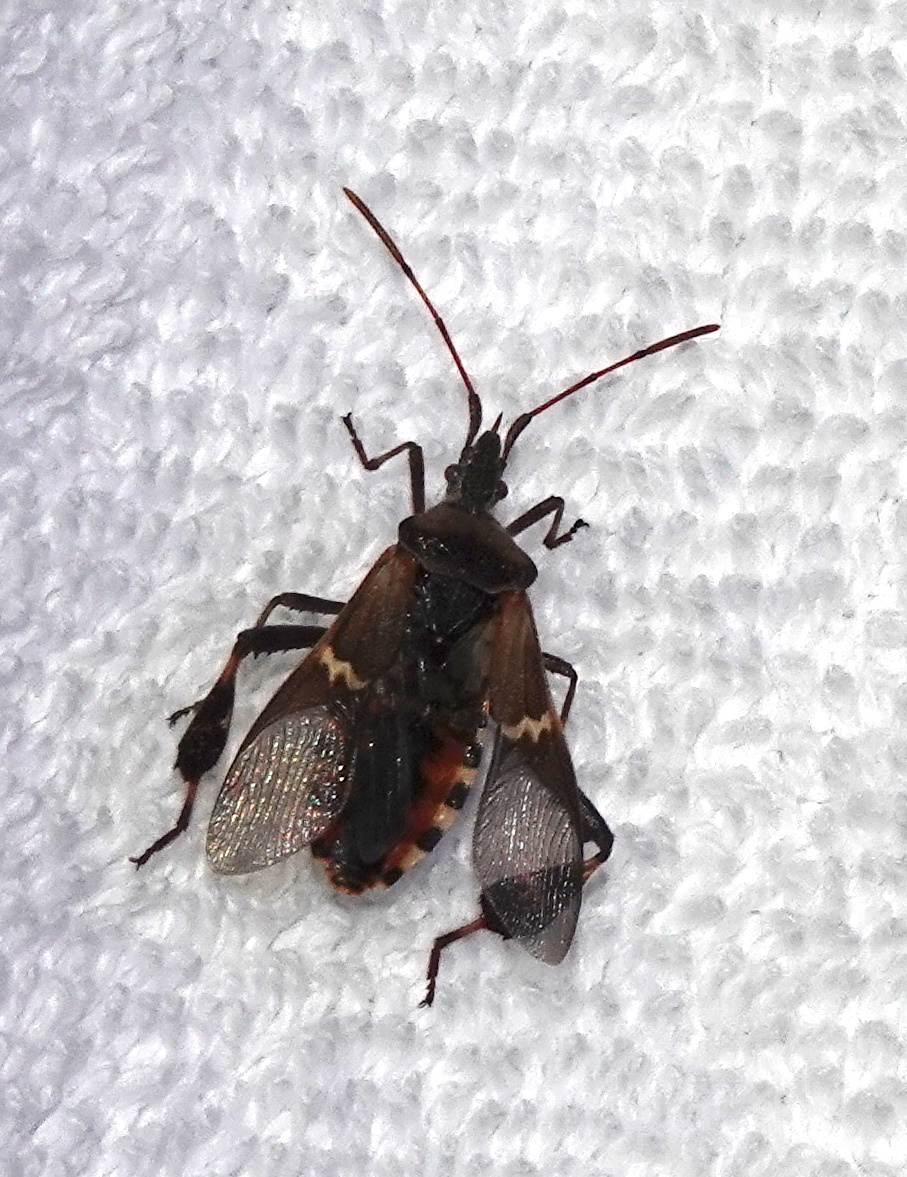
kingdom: Animalia
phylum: Arthropoda
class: Insecta
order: Hemiptera
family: Coreidae
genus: Leptoglossus
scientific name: Leptoglossus clypealis
